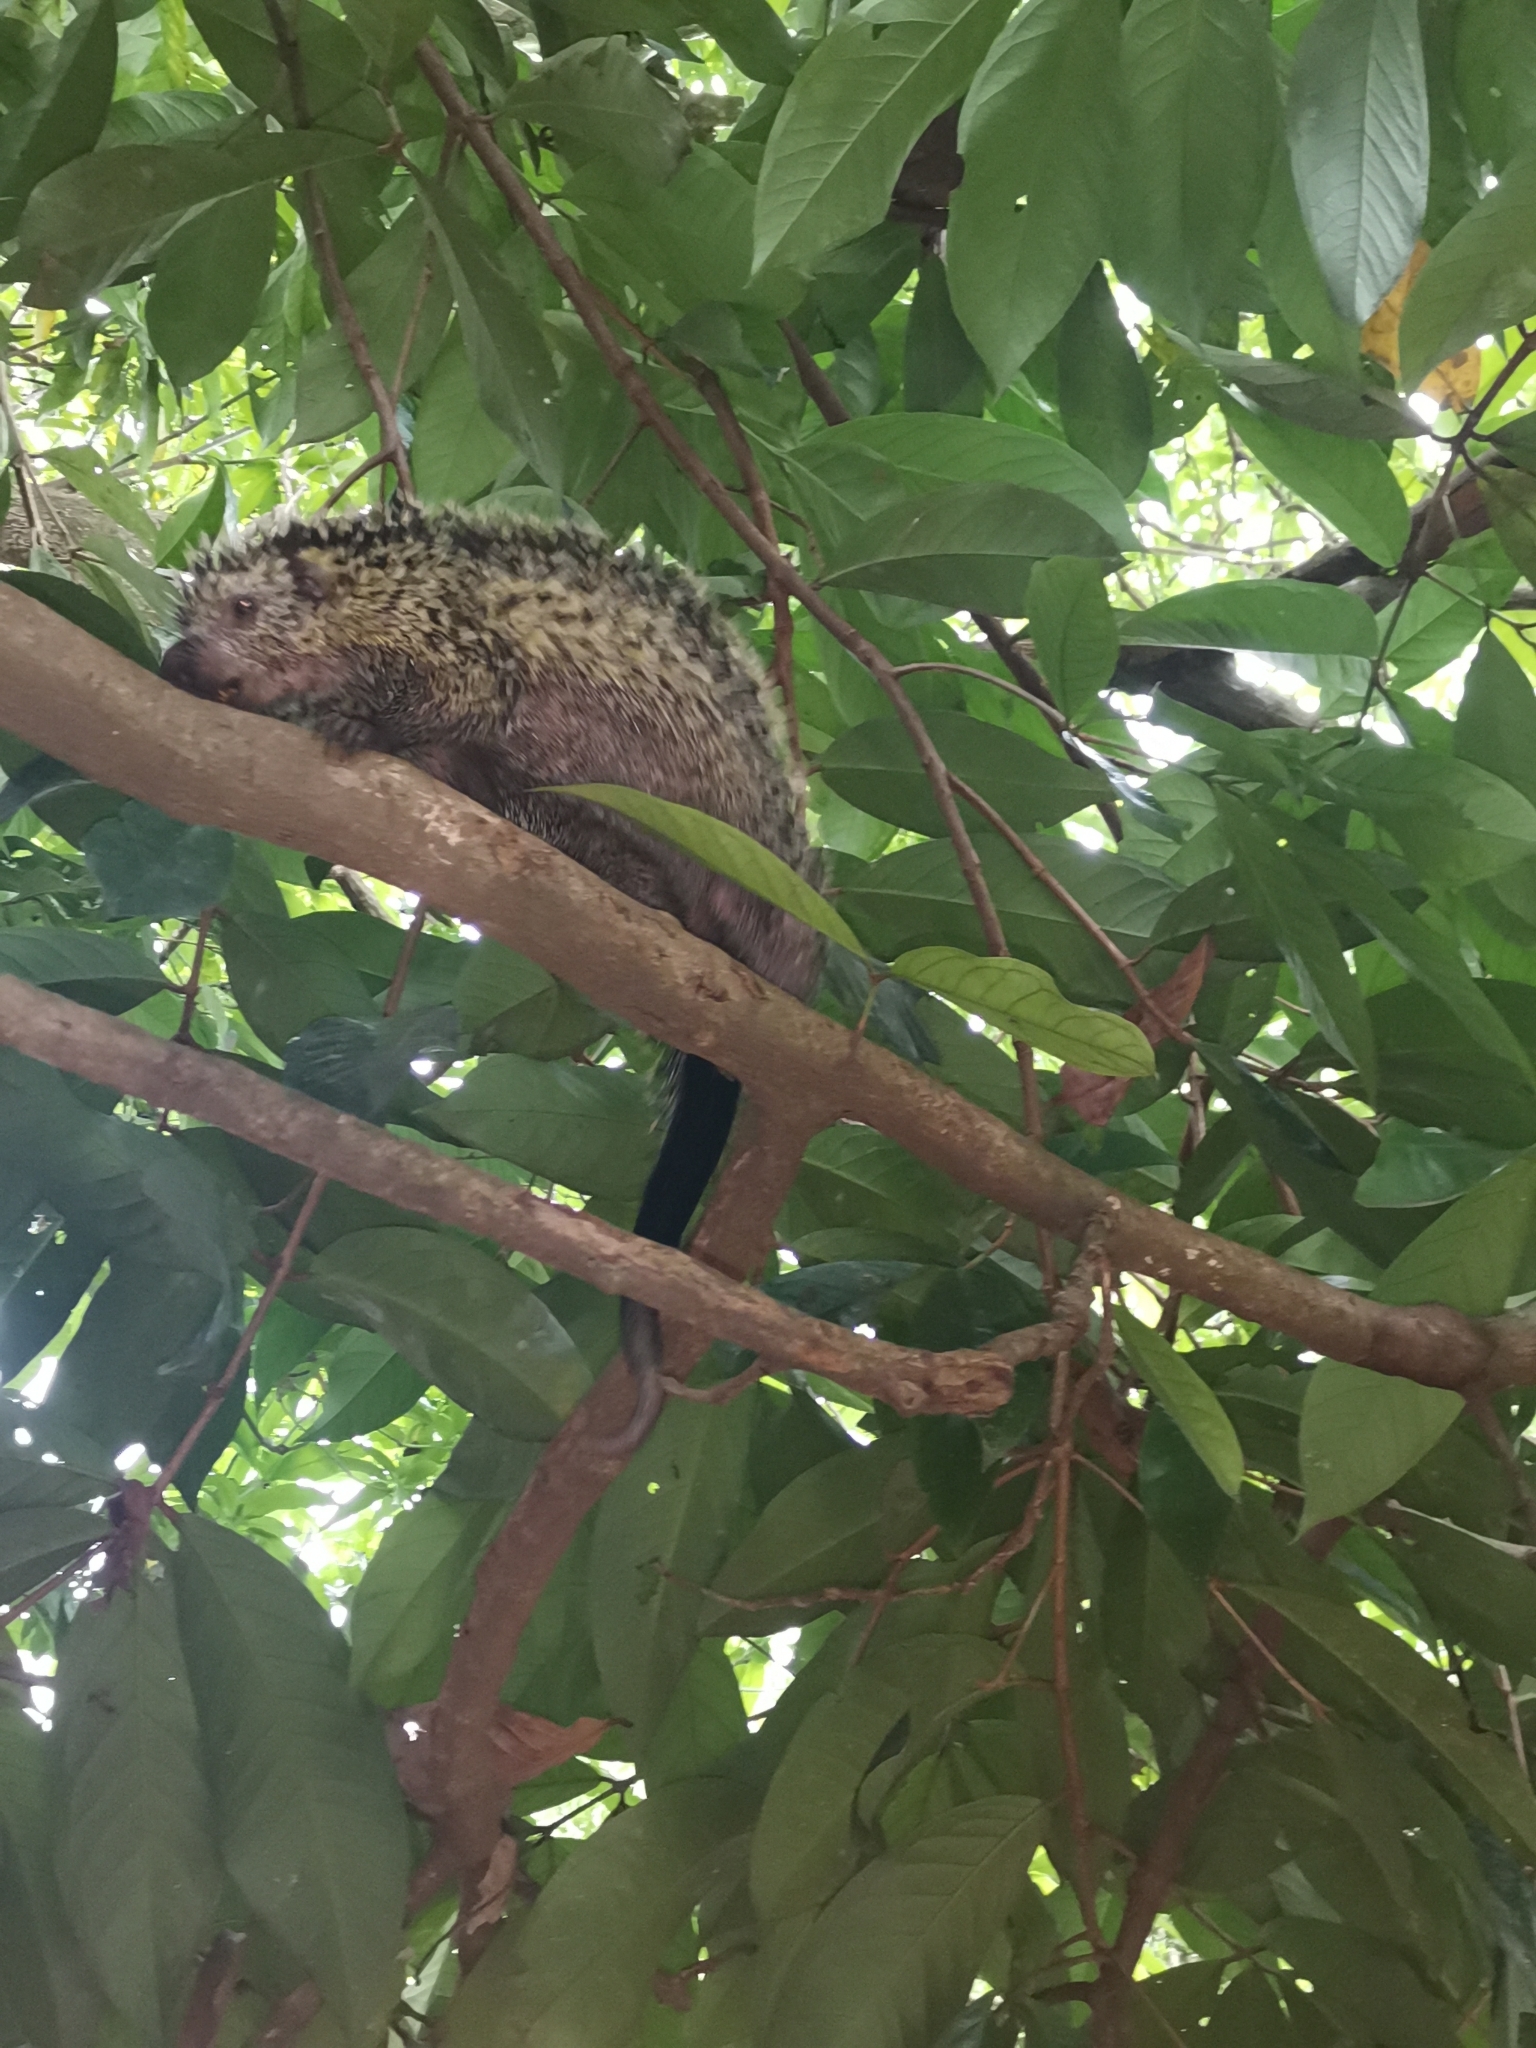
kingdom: Animalia
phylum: Chordata
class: Mammalia
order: Rodentia
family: Erethizontidae
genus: Coendou
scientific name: Coendou quichua
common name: Quichua porcupine
